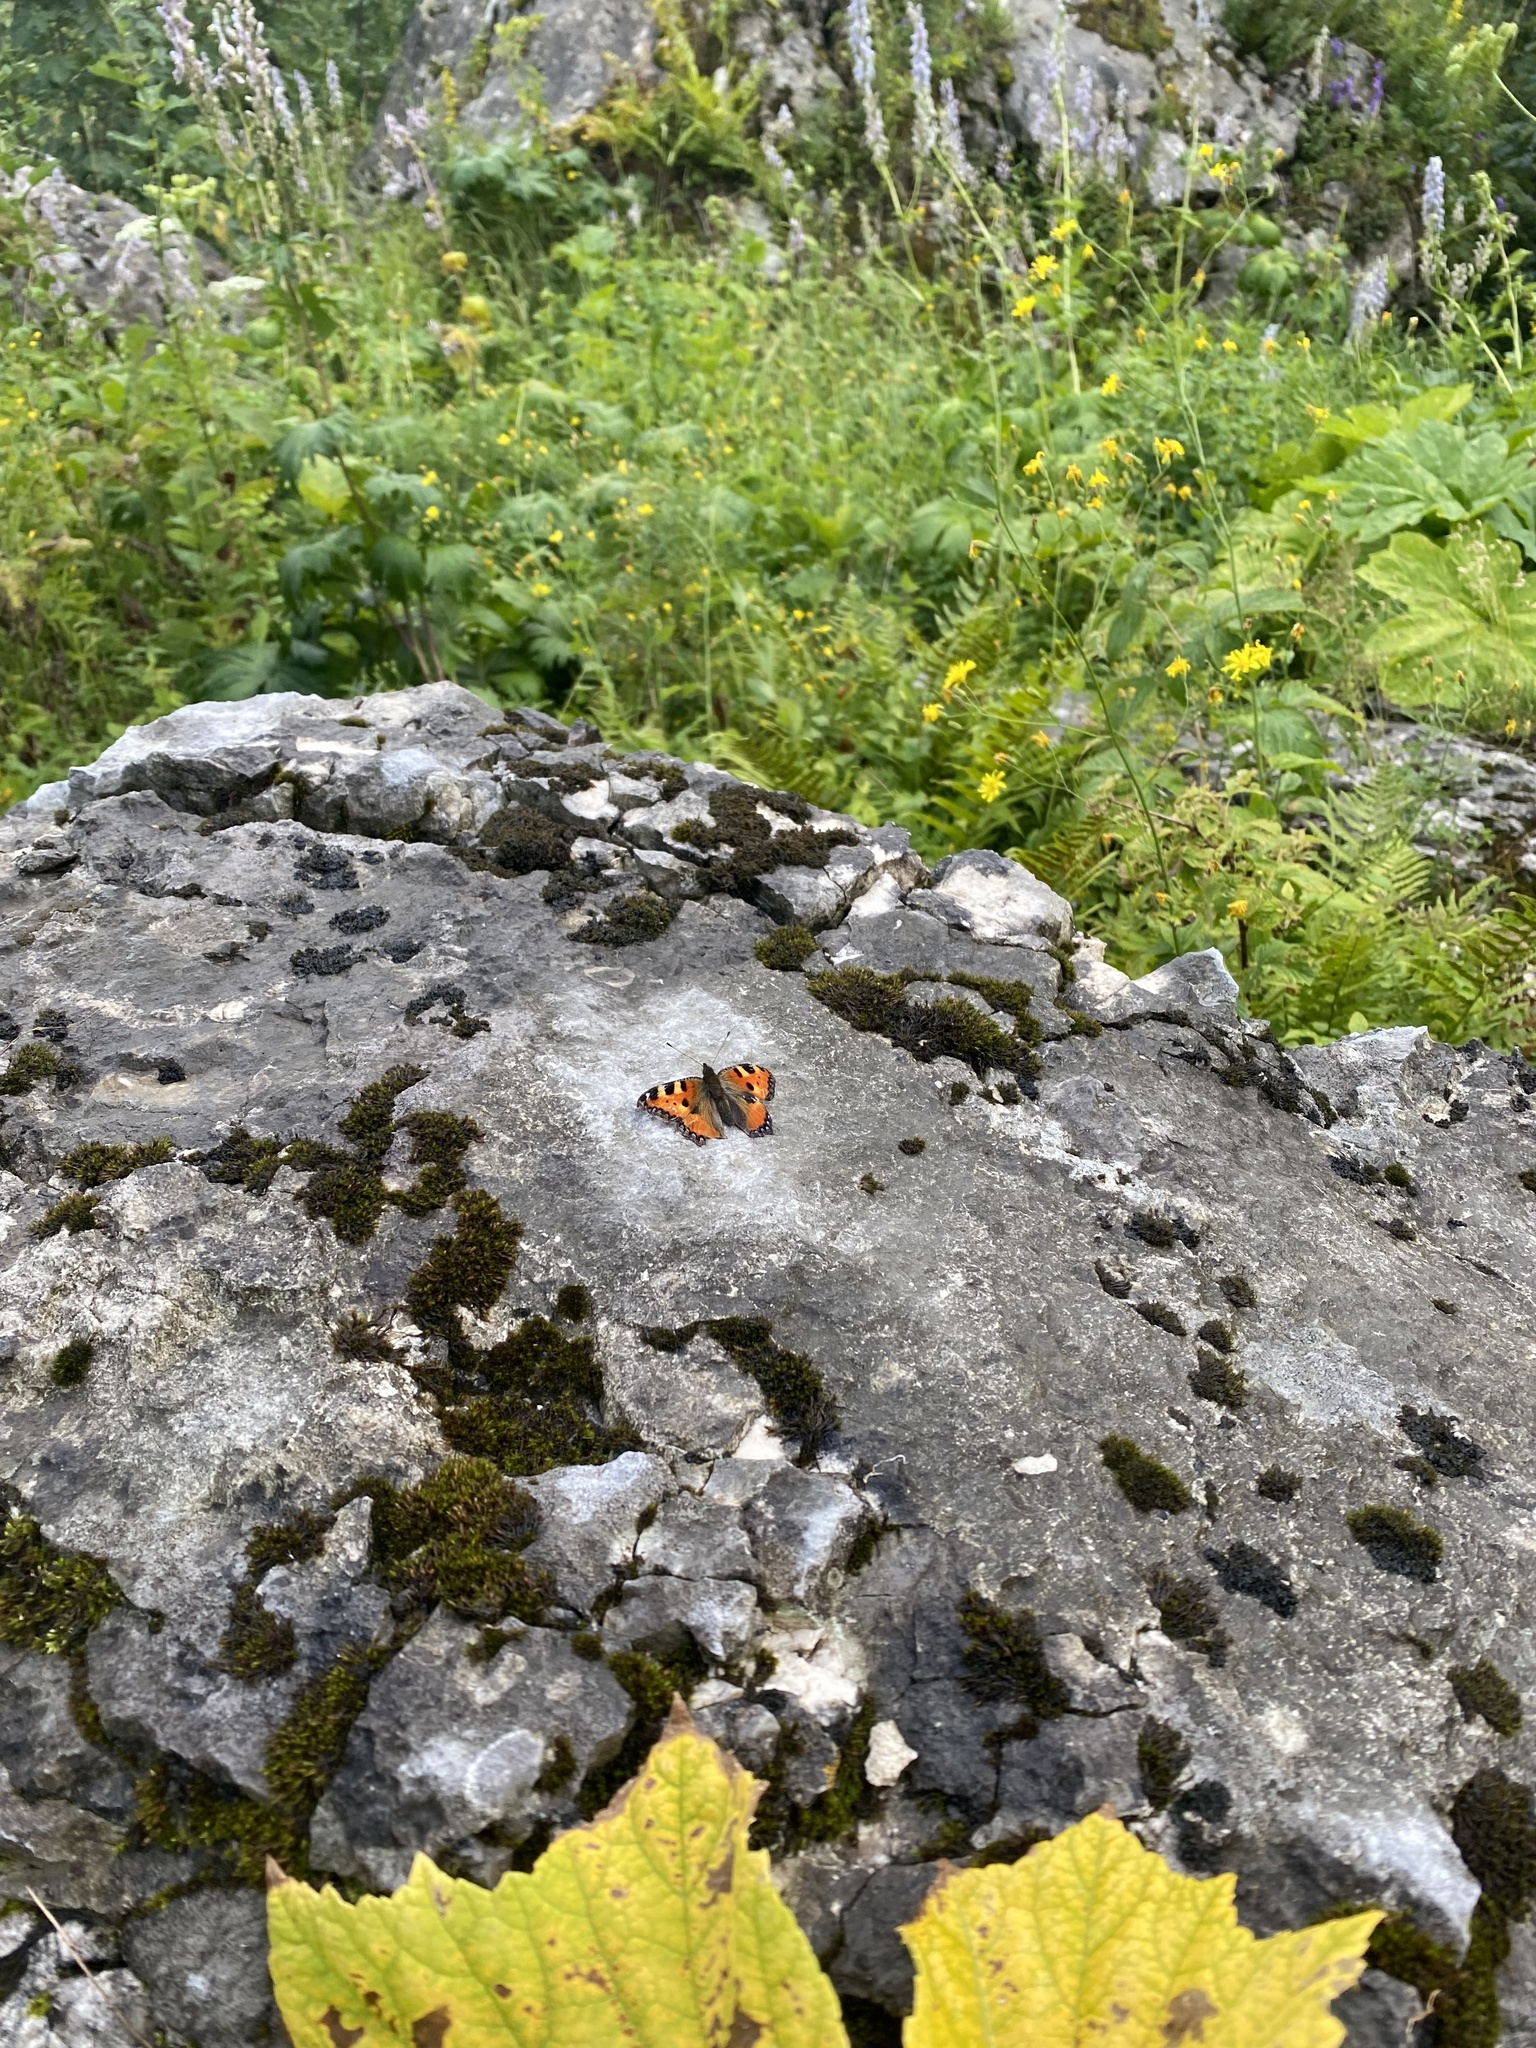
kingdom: Animalia
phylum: Arthropoda
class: Insecta
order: Lepidoptera
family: Nymphalidae
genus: Aglais
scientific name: Aglais urticae
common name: Small tortoiseshell
